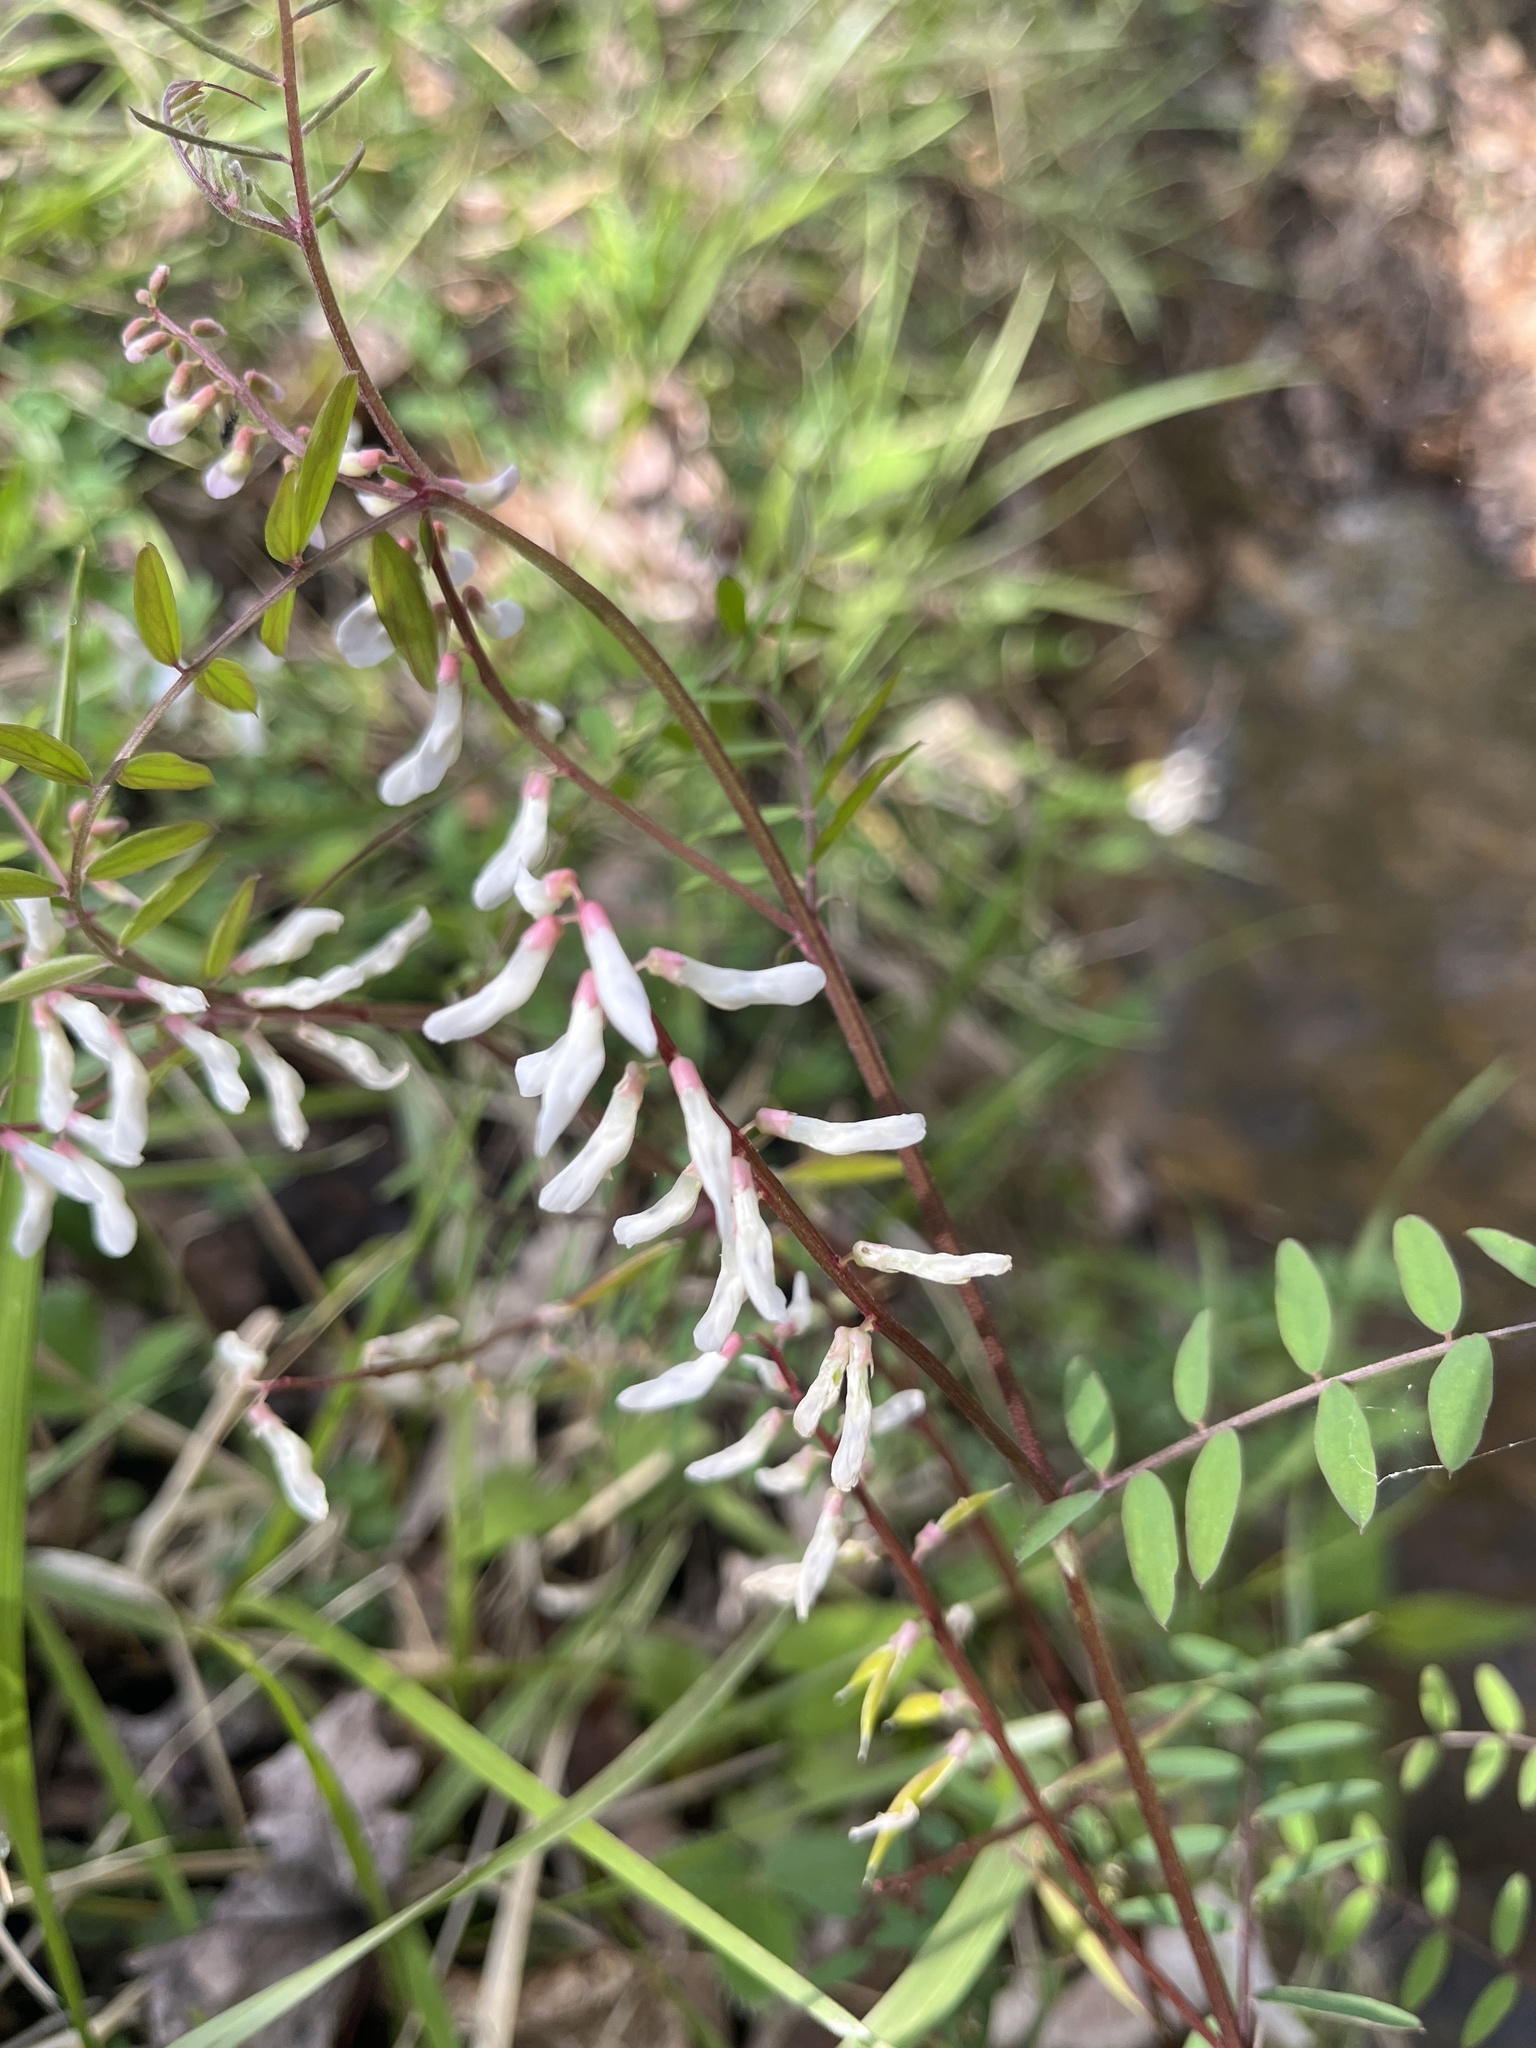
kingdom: Plantae
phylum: Tracheophyta
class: Magnoliopsida
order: Fabales
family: Fabaceae
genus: Vicia
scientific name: Vicia caroliniana
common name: Carolina vetch
